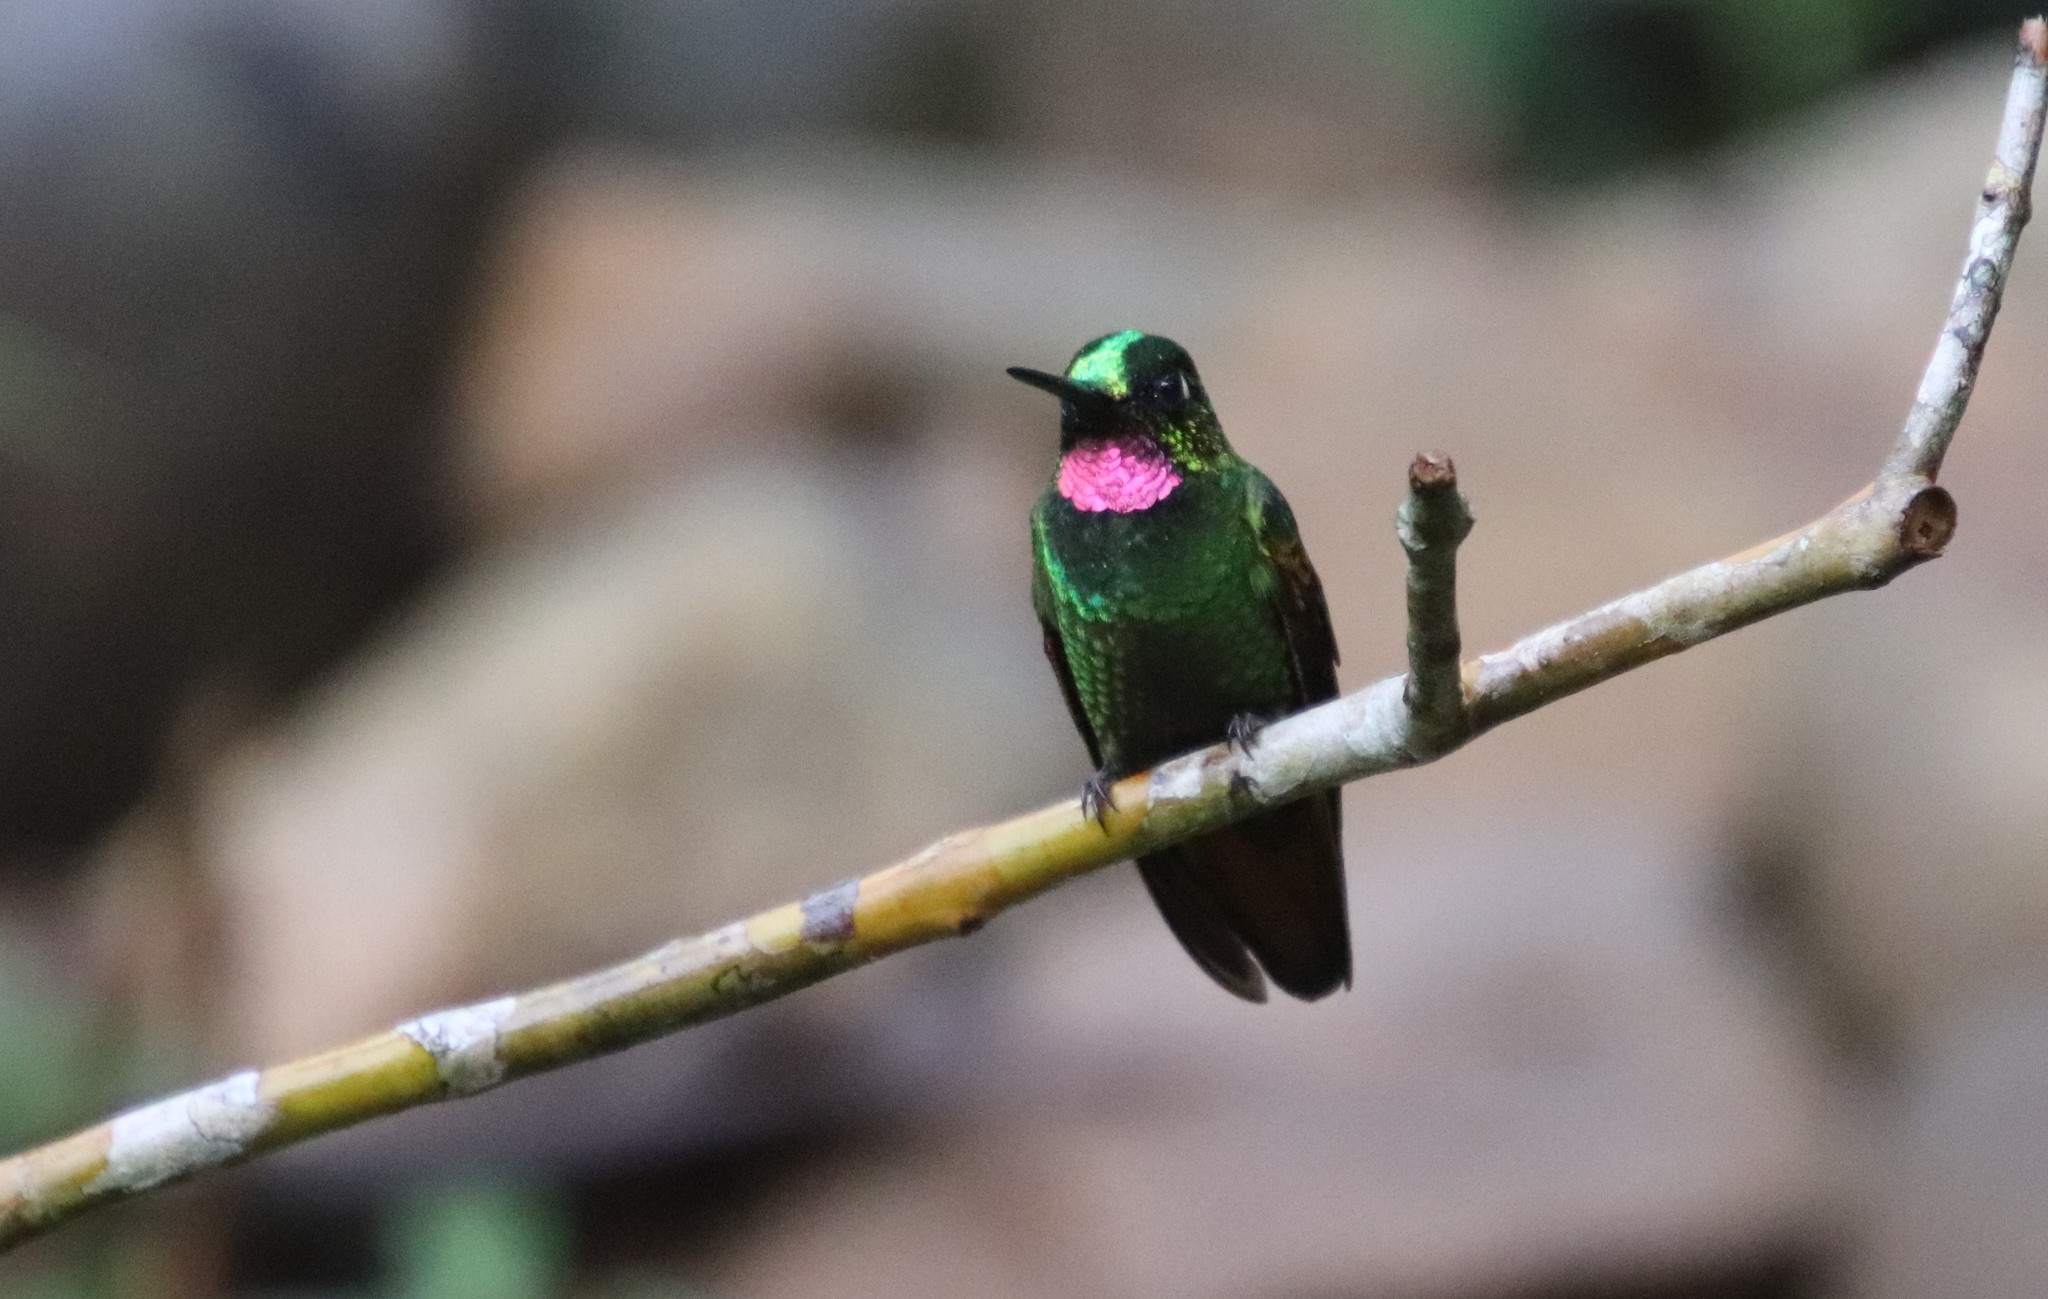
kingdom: Animalia
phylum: Chordata
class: Aves
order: Apodiformes
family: Trochilidae
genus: Clytolaema
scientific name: Clytolaema rubricauda
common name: Brazilian ruby
